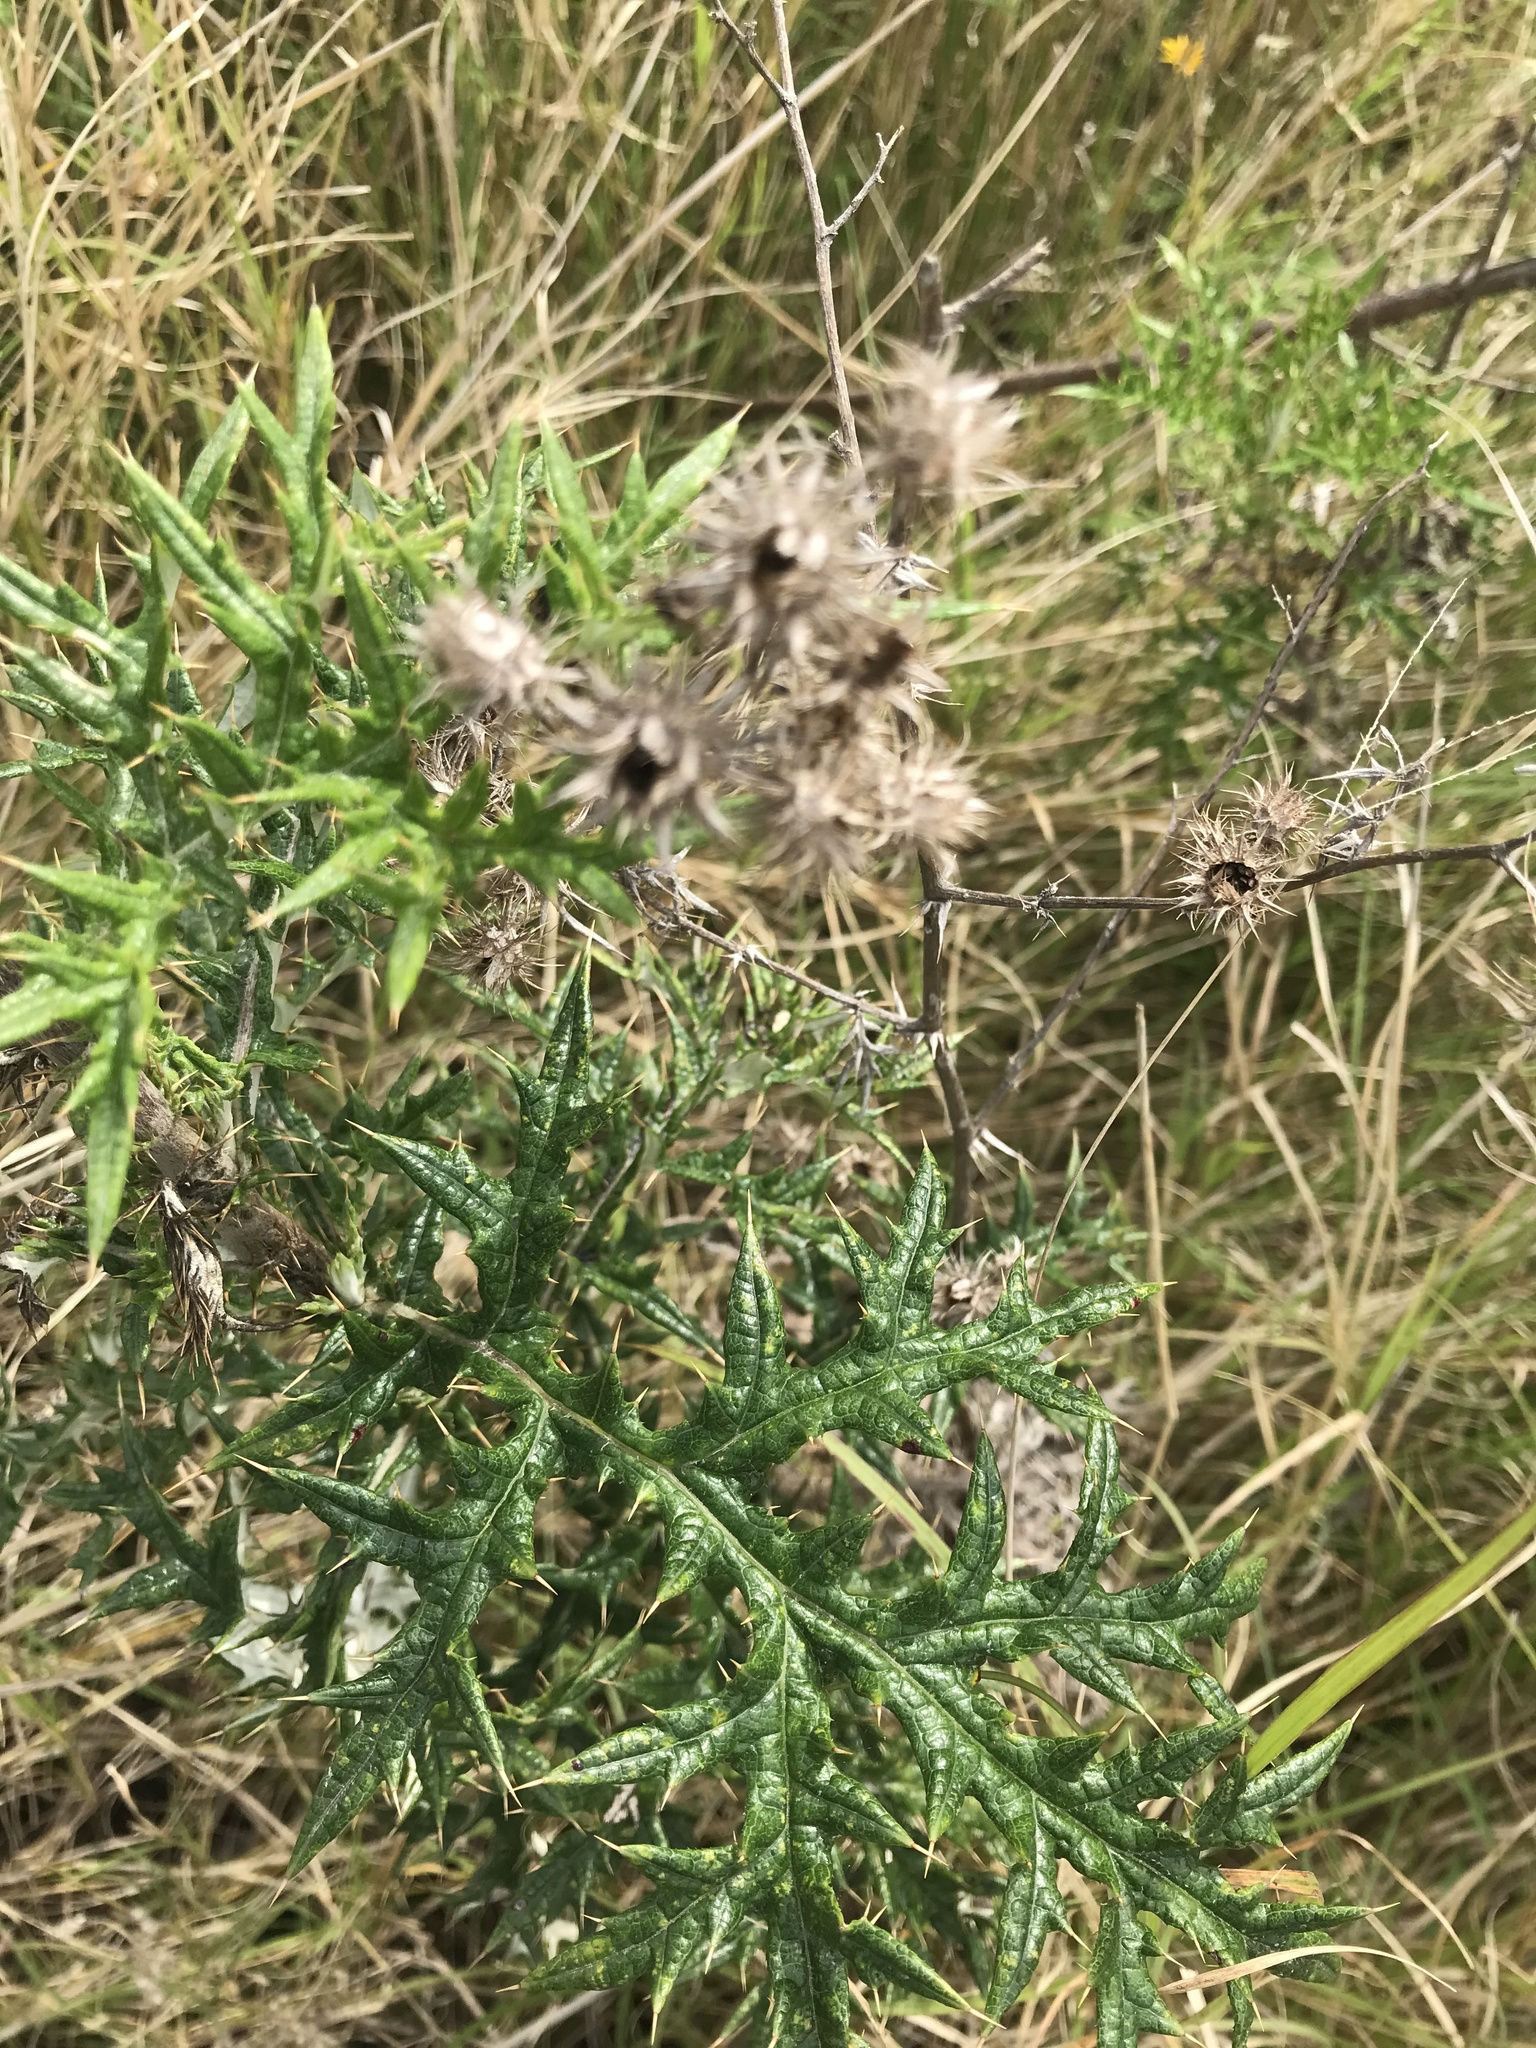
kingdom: Plantae
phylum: Tracheophyta
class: Magnoliopsida
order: Asterales
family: Asteraceae
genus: Berkheya
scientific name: Berkheya bipinnatifida
